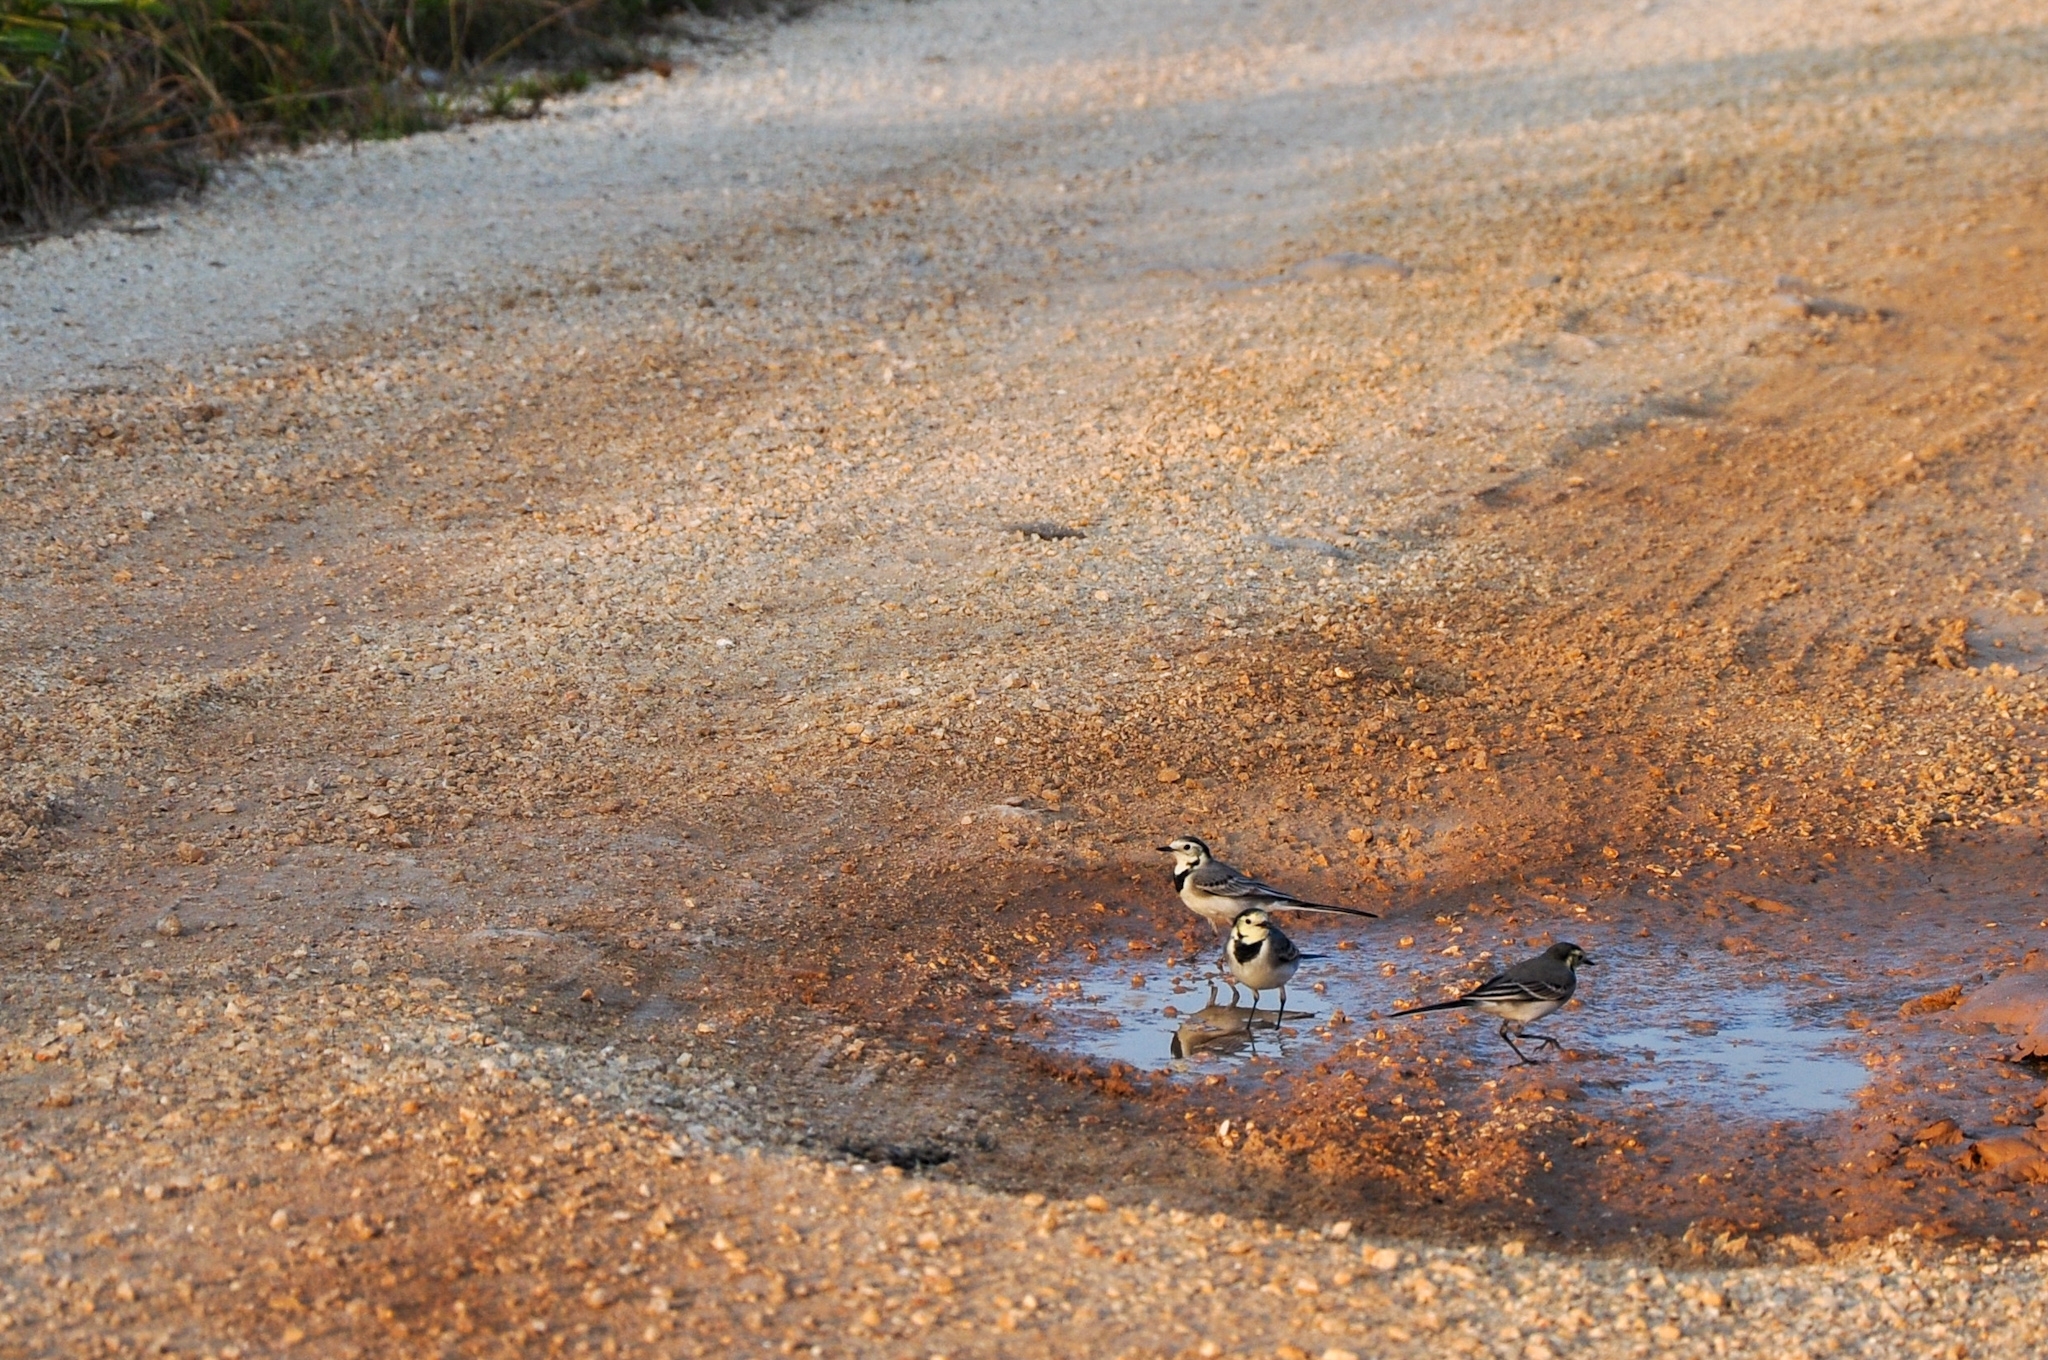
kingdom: Animalia
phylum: Chordata
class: Aves
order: Passeriformes
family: Motacillidae
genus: Motacilla
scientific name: Motacilla alba
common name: White wagtail
